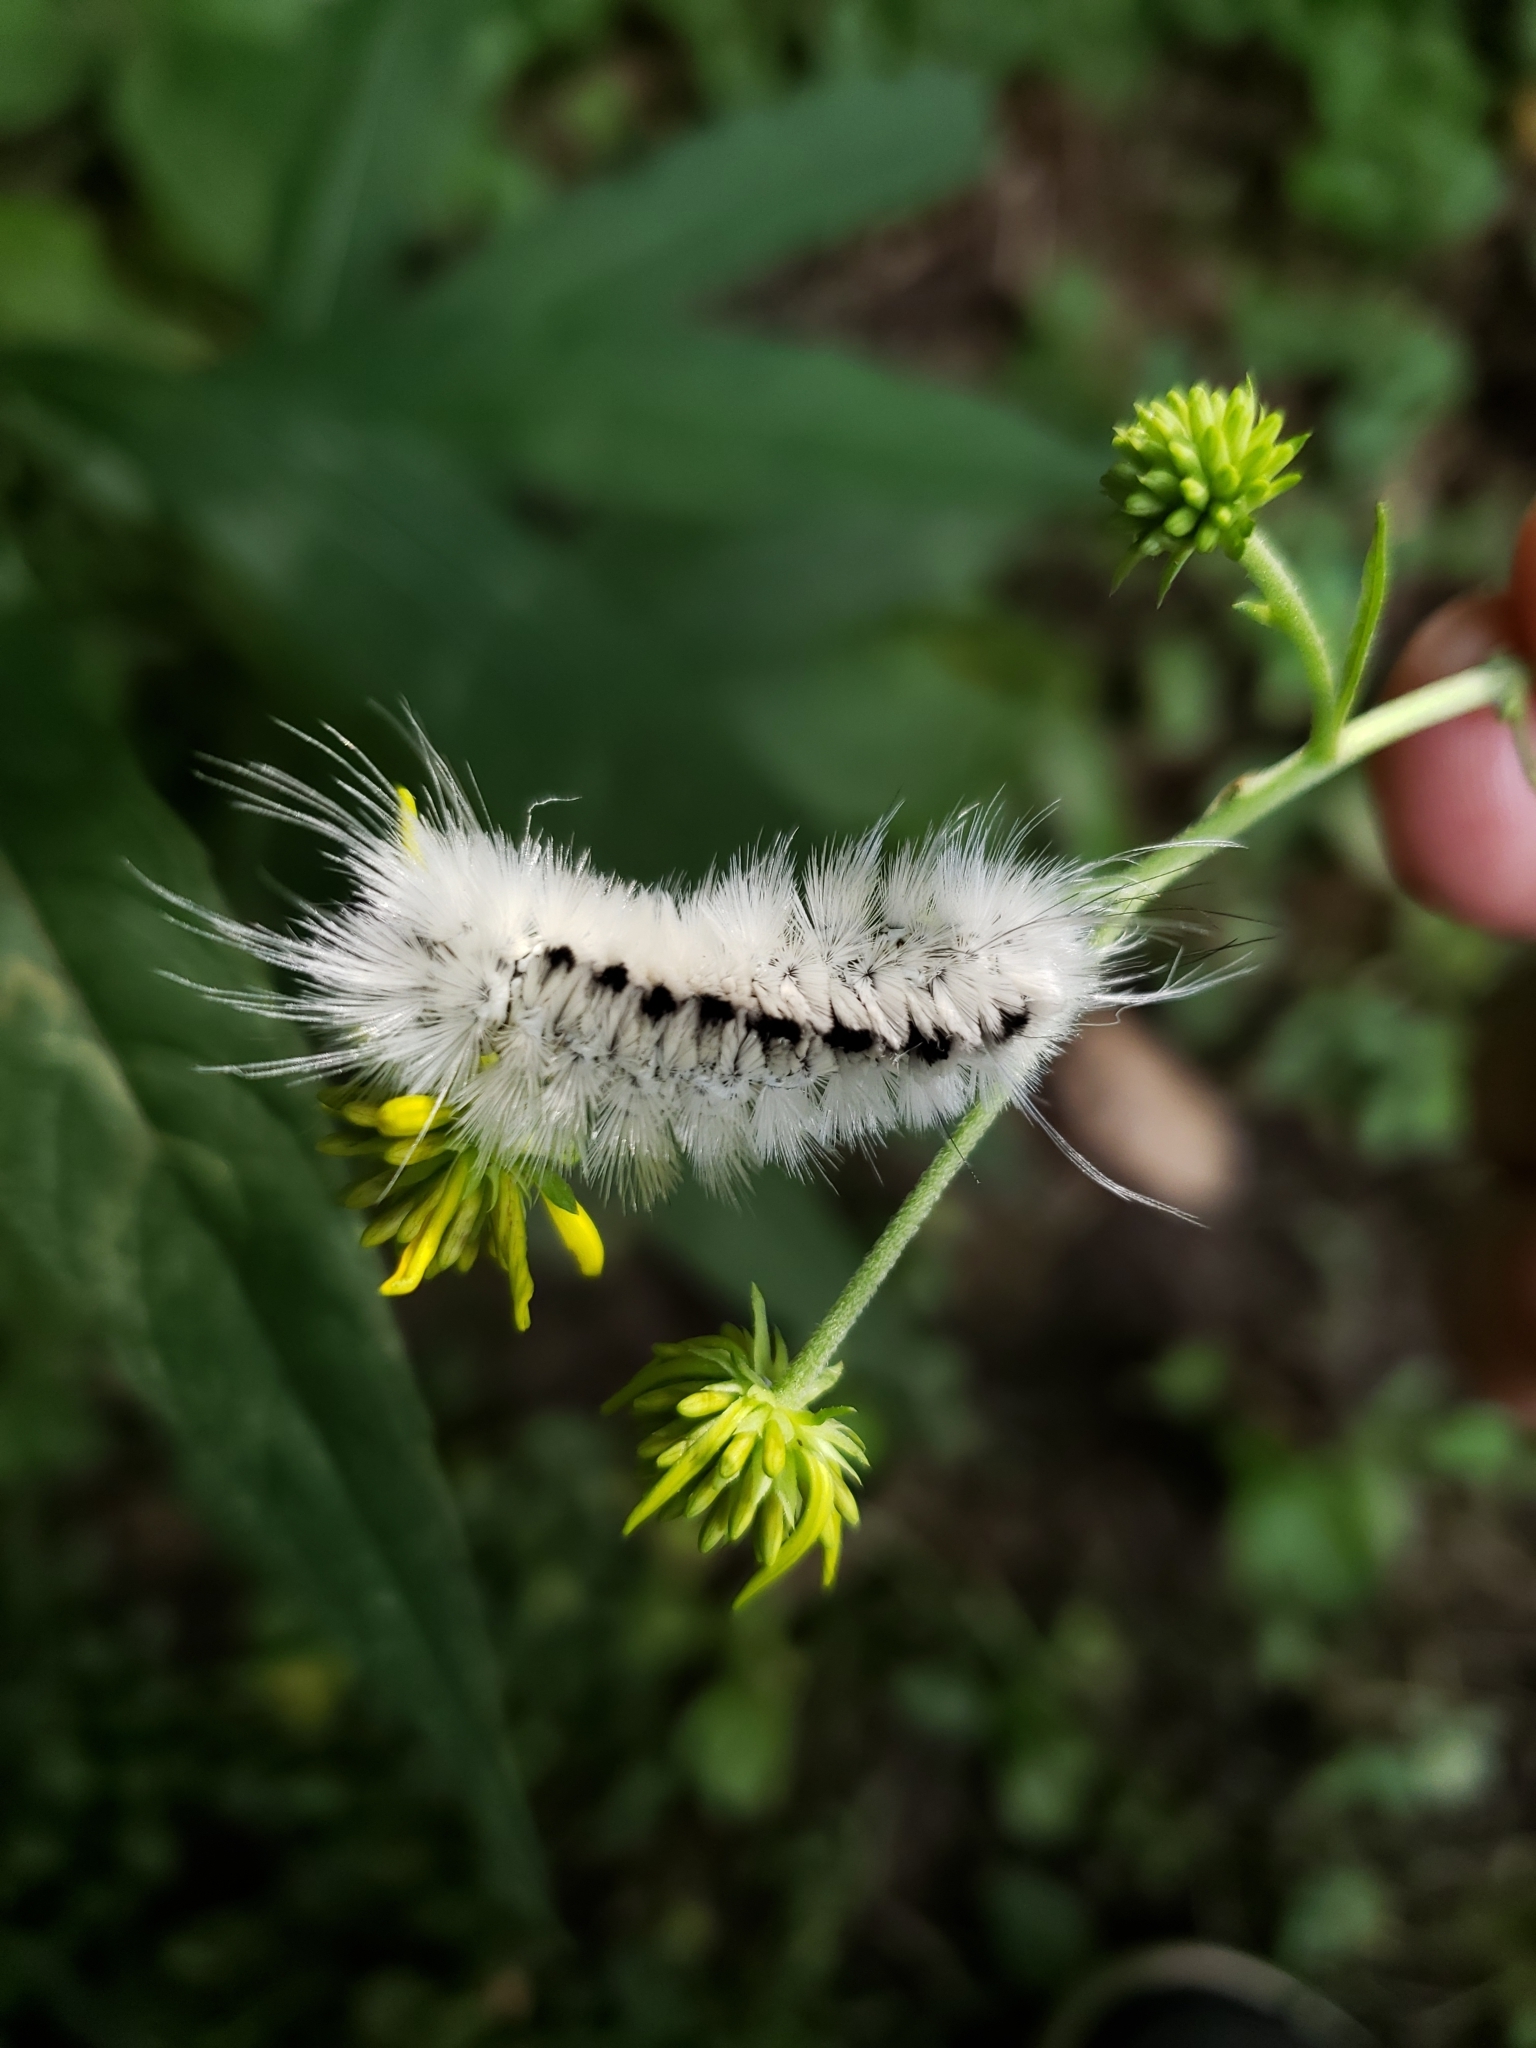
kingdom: Animalia
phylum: Arthropoda
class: Insecta
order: Lepidoptera
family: Erebidae
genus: Lophocampa
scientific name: Lophocampa caryae
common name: Hickory tussock moth
